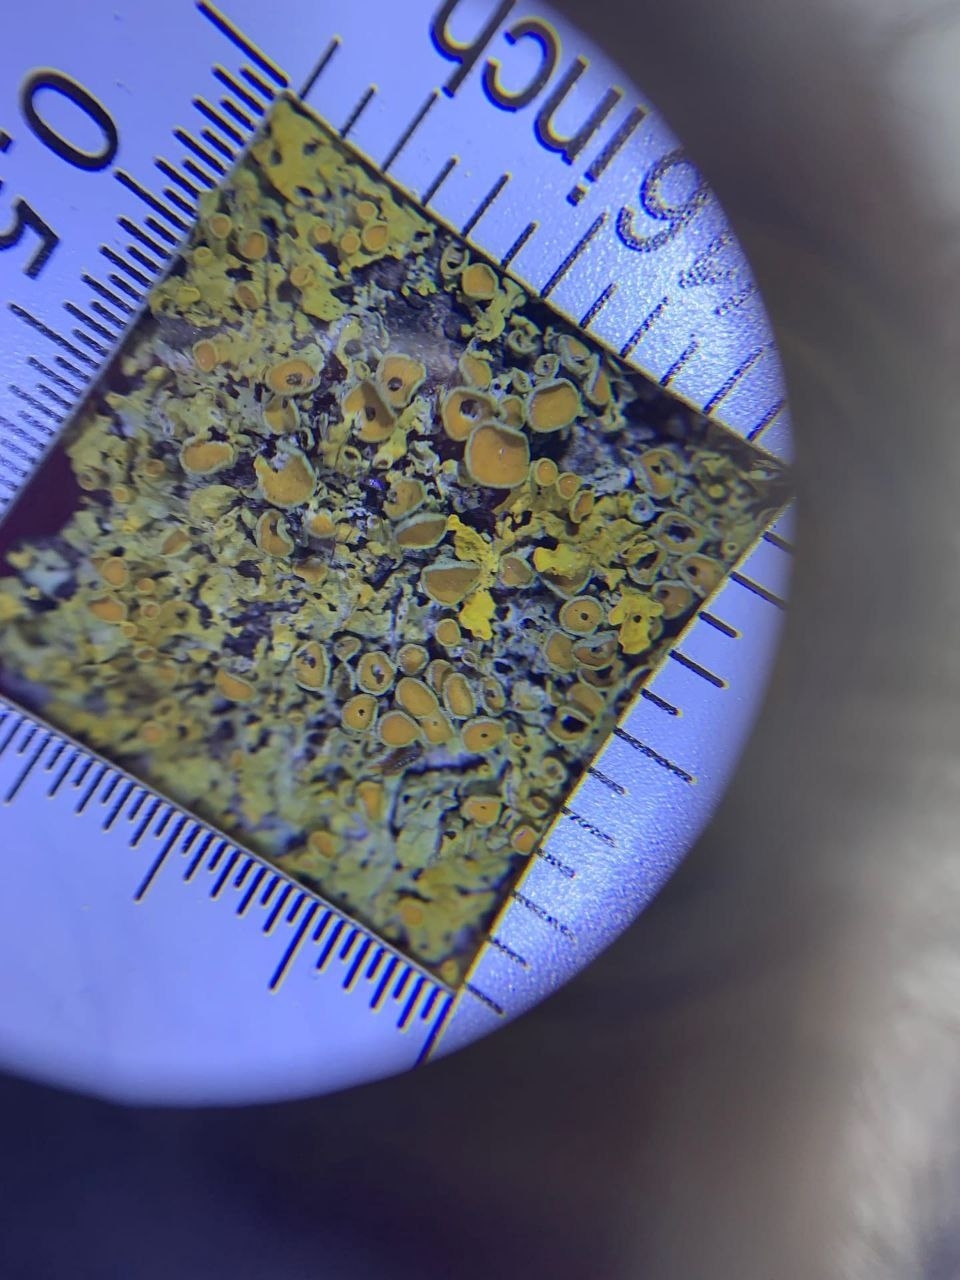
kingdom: Fungi
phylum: Ascomycota
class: Lecanoromycetes
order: Teloschistales
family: Teloschistaceae
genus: Xanthoria
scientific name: Xanthoria parietina
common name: Common orange lichen
